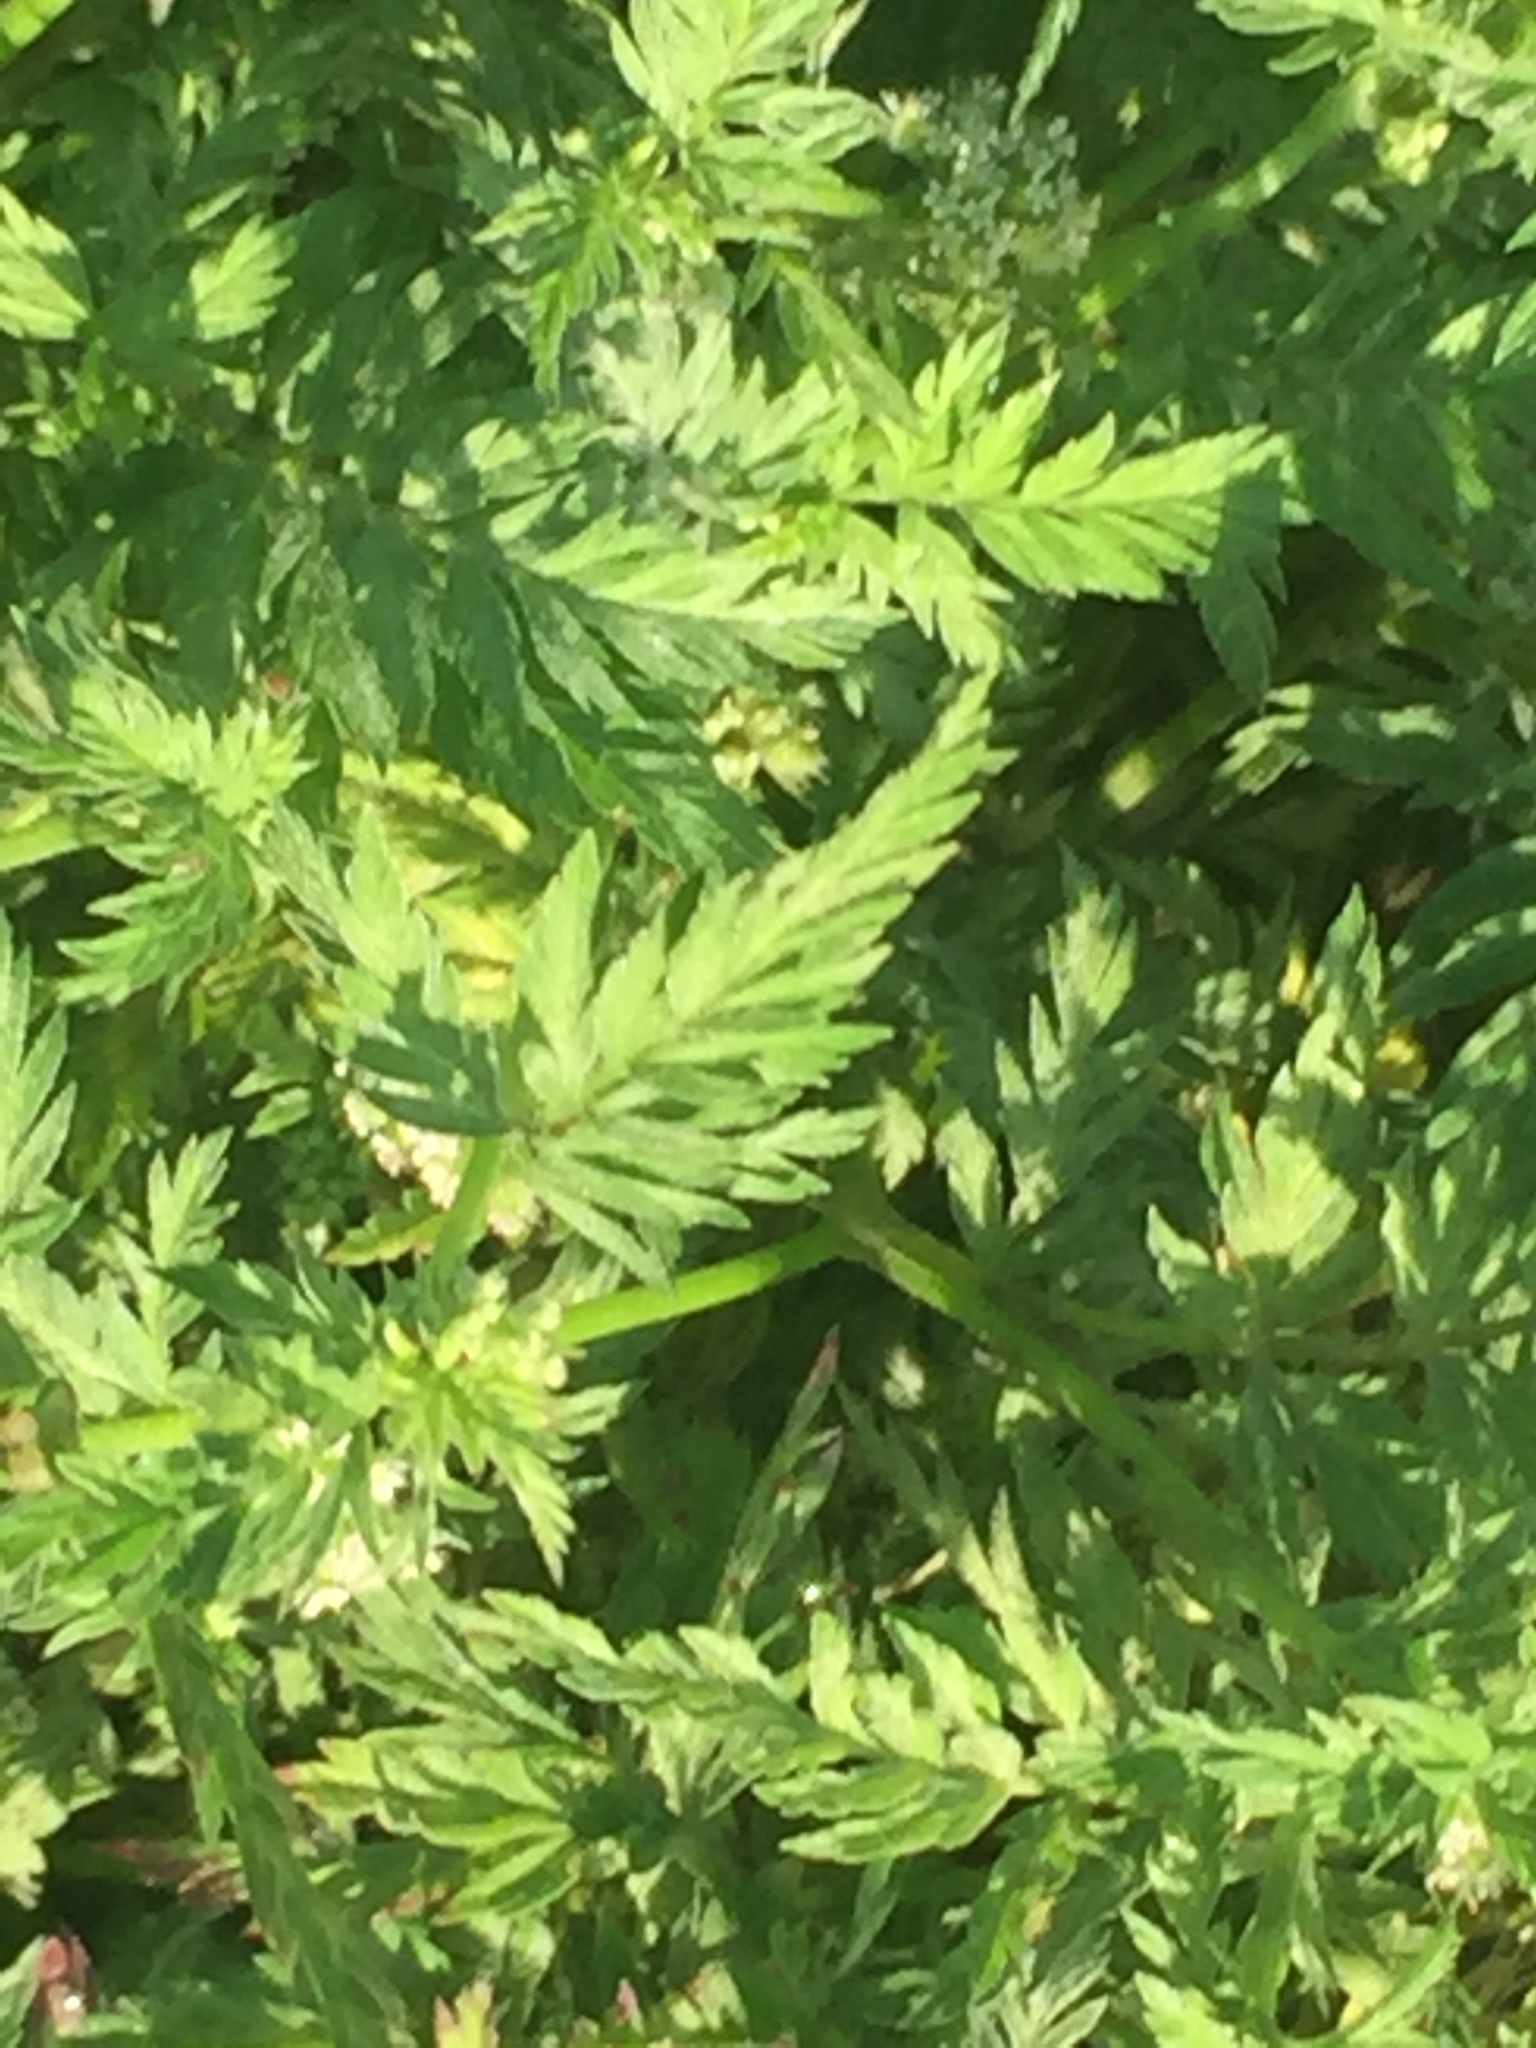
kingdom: Plantae
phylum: Tracheophyta
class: Magnoliopsida
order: Apiales
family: Apiaceae
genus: Torilis
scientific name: Torilis nodosa
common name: Knotted hedge-parsley
